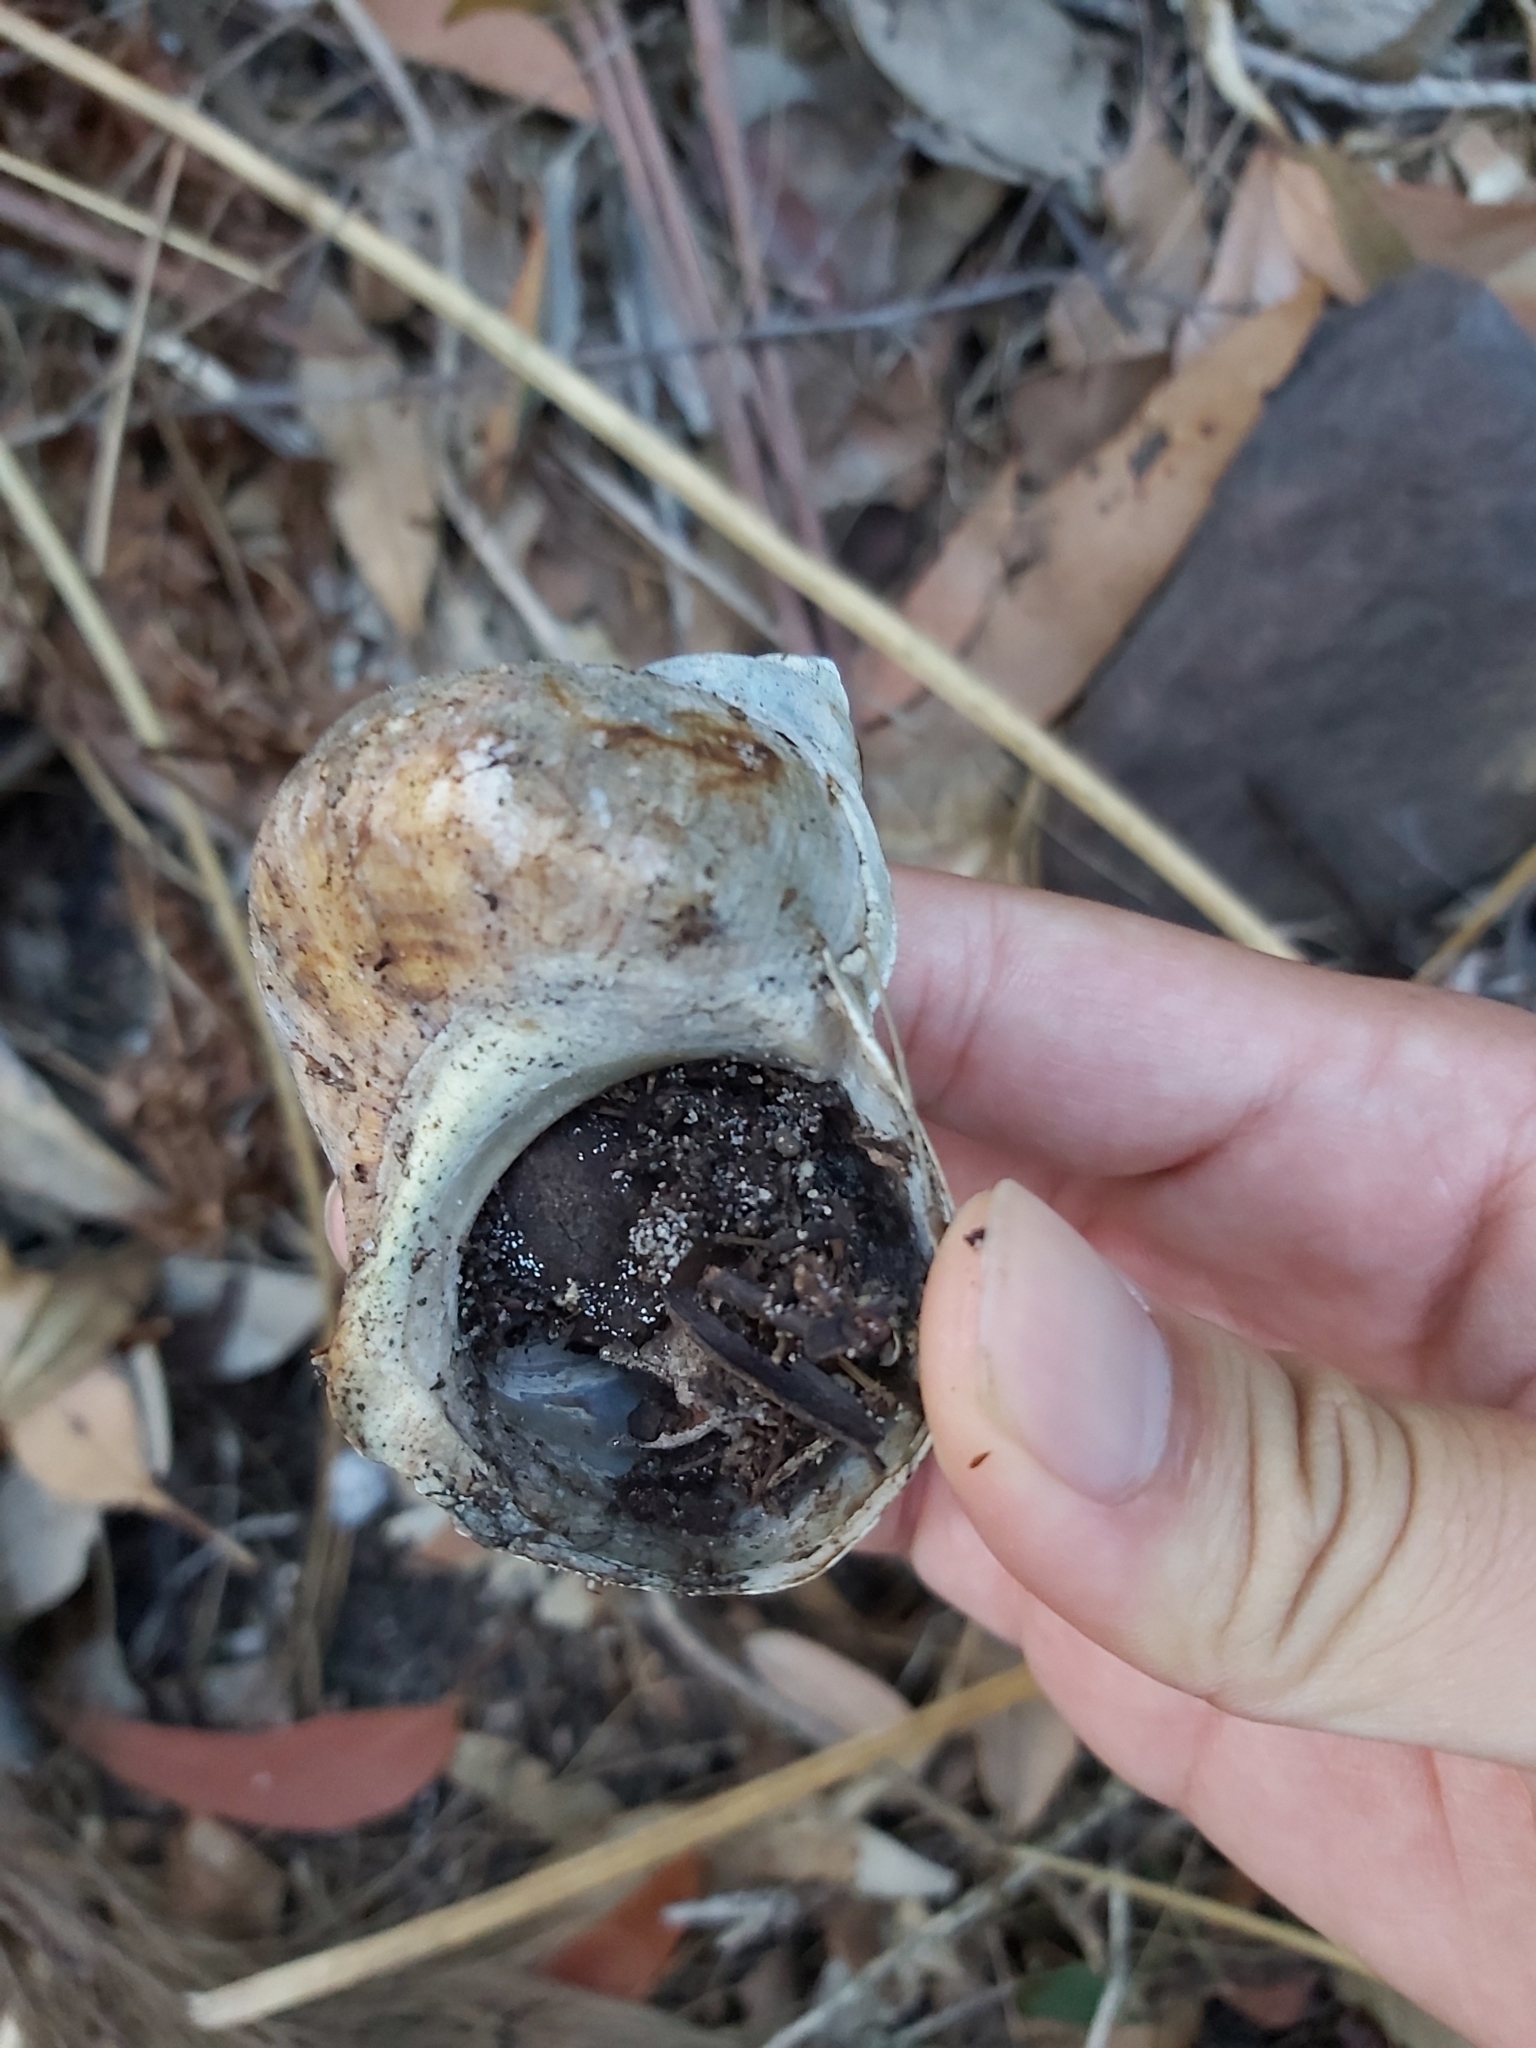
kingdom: Animalia
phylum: Mollusca
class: Gastropoda
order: Trochida
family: Turbinidae
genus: Turbo
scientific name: Turbo militaris
